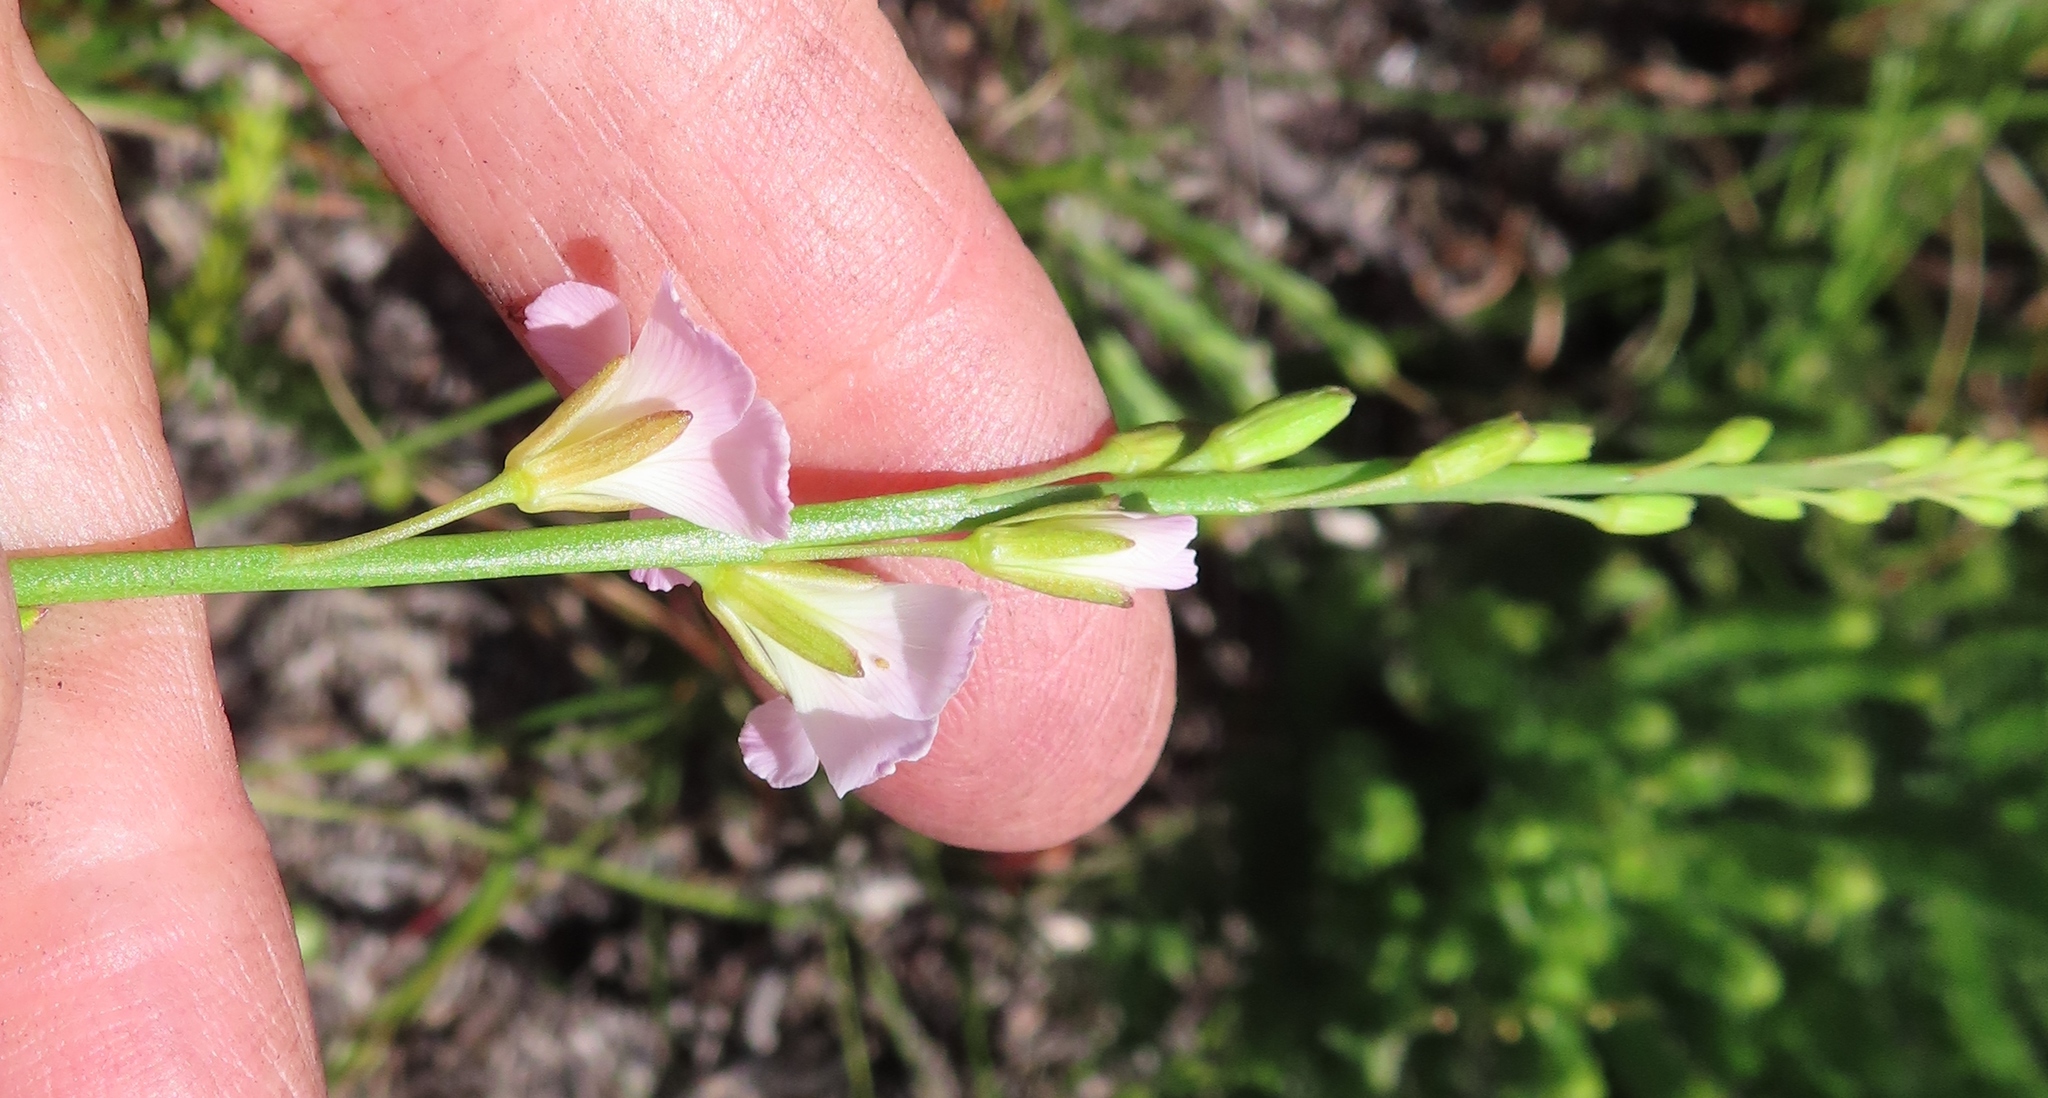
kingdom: Plantae
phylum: Tracheophyta
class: Magnoliopsida
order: Brassicales
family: Brassicaceae
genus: Heliophila
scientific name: Heliophila macra
